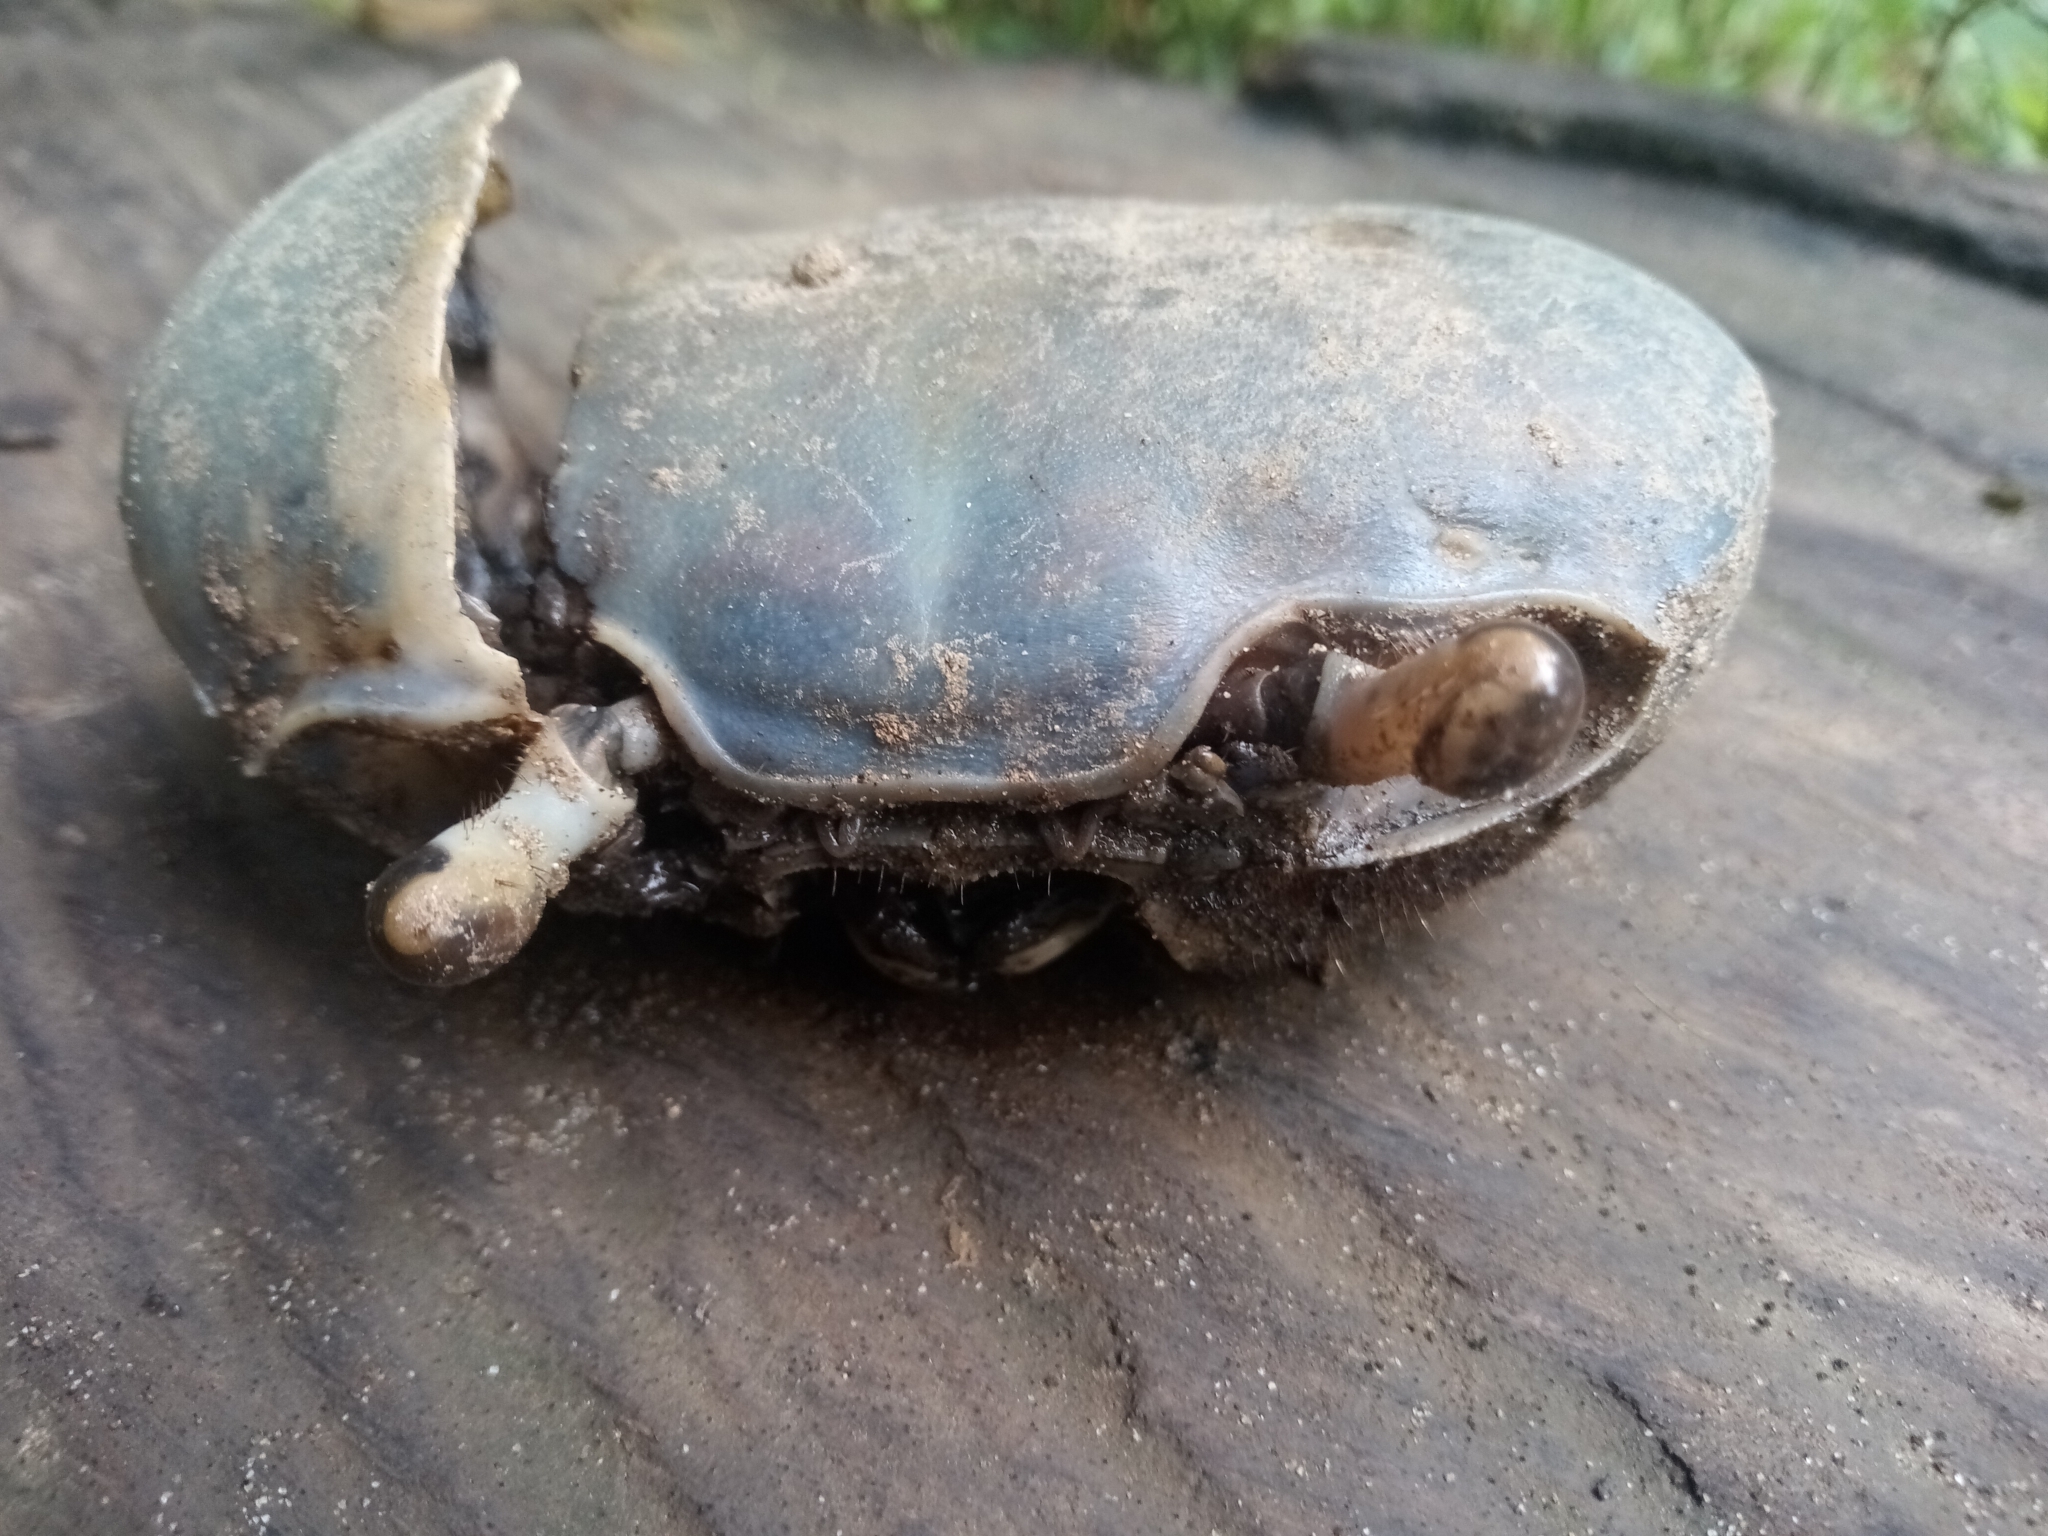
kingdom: Animalia
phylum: Arthropoda
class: Malacostraca
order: Decapoda
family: Gecarcinidae
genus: Cardisoma
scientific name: Cardisoma guanhumi
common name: Great land crab
